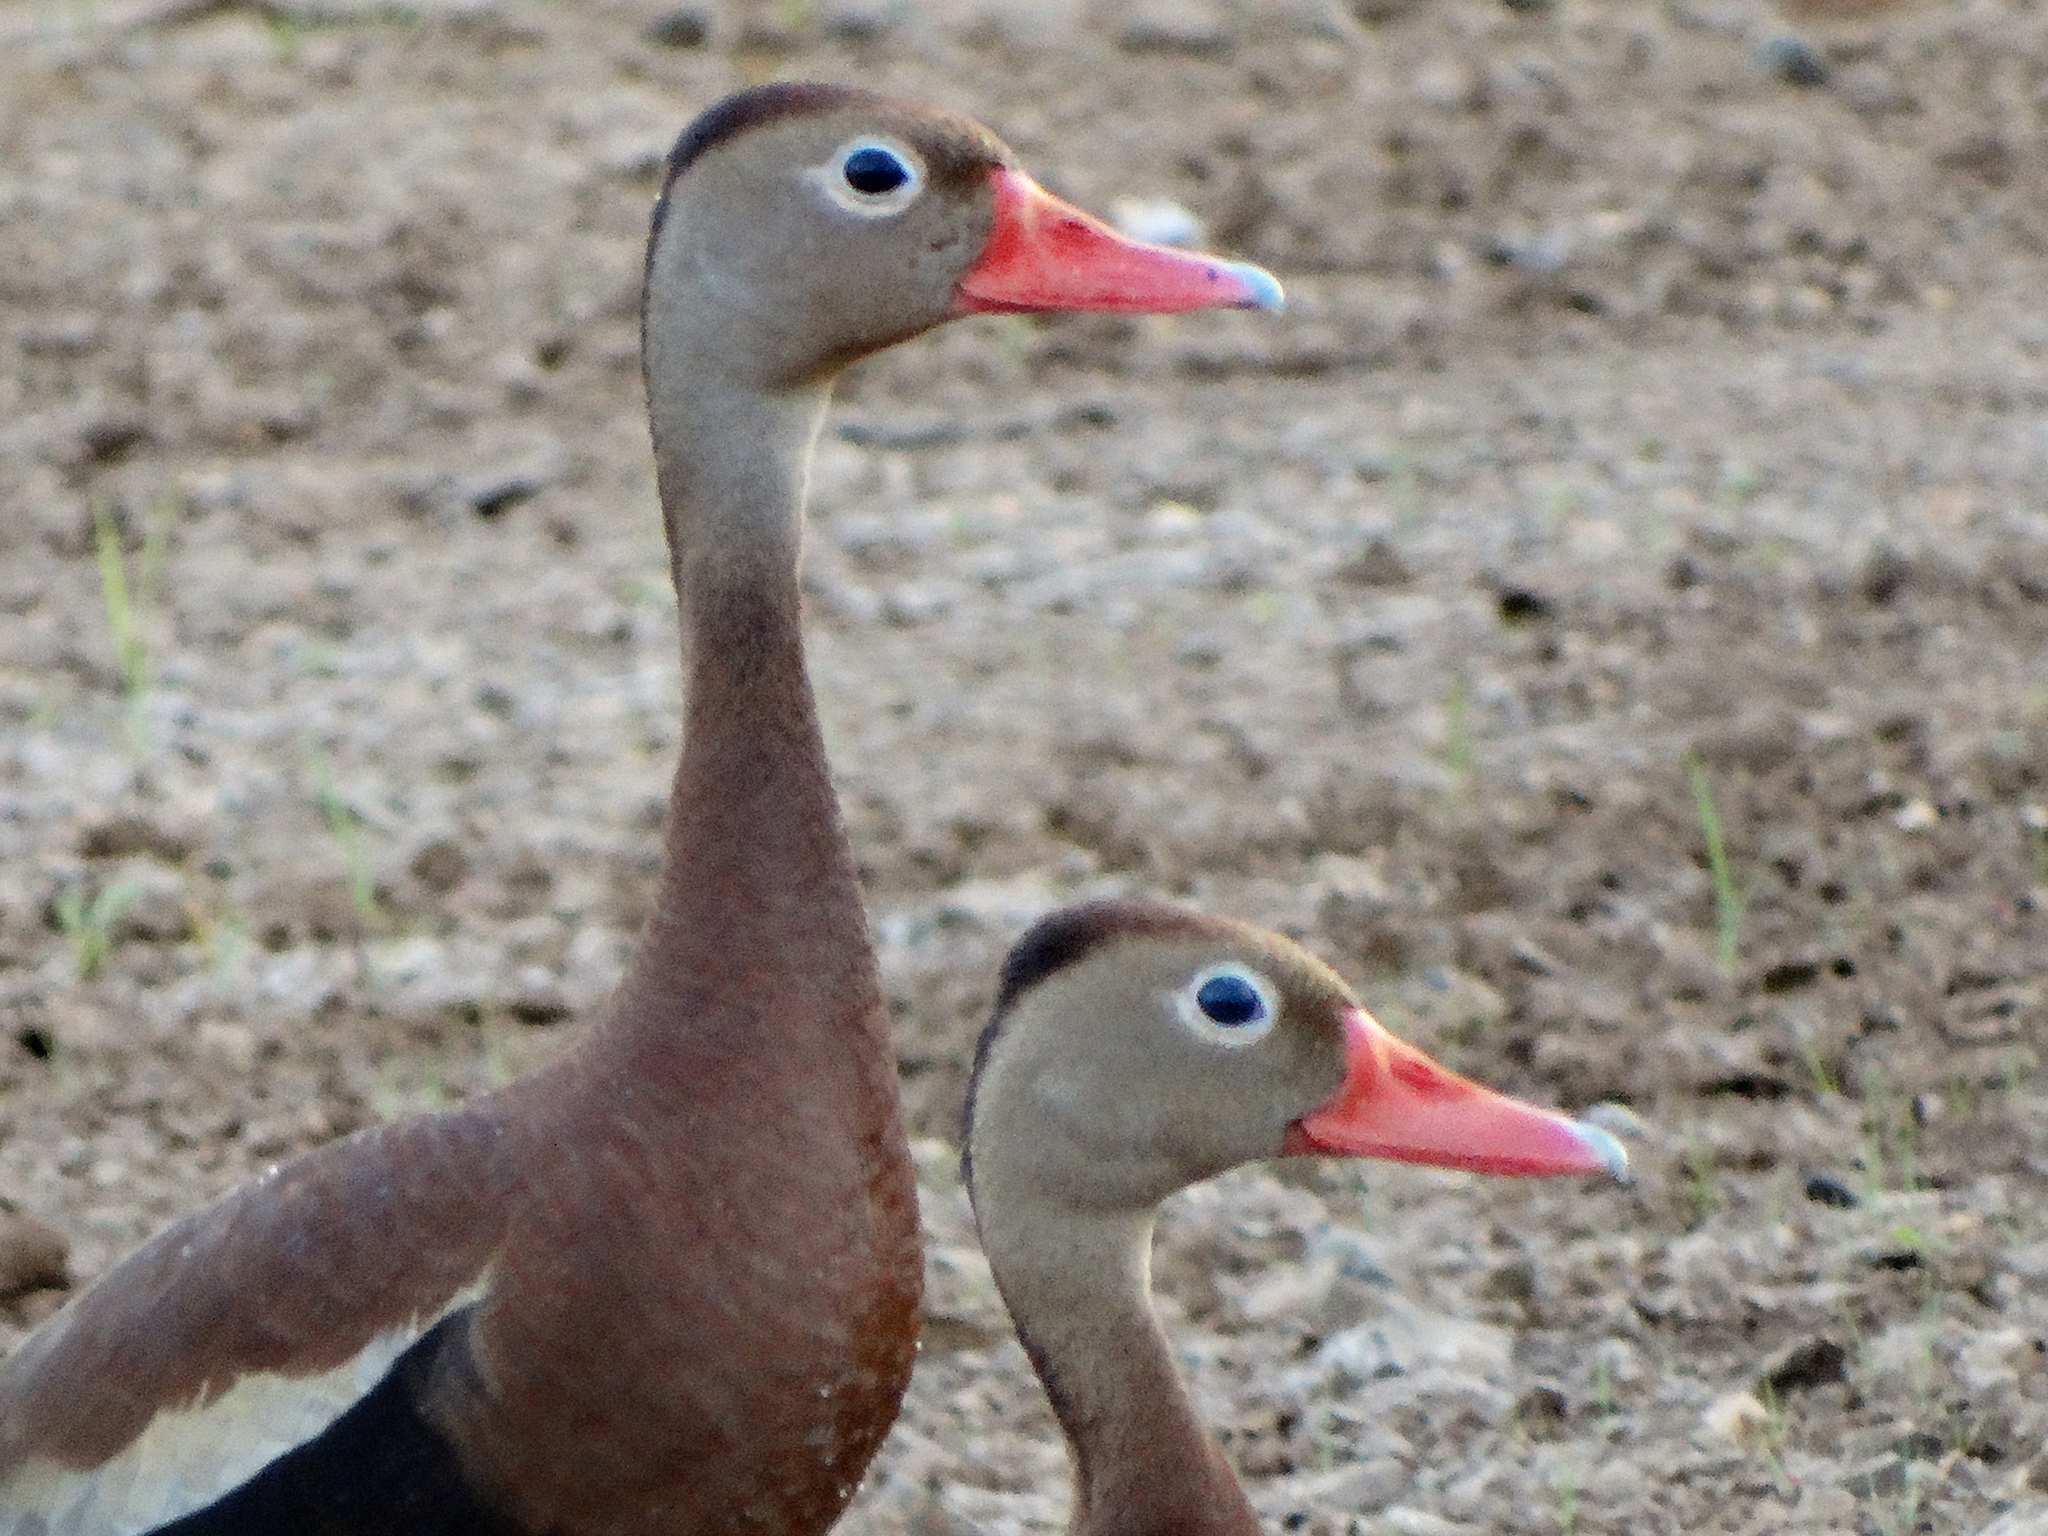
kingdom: Animalia
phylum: Chordata
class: Aves
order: Anseriformes
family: Anatidae
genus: Dendrocygna
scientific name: Dendrocygna autumnalis
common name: Black-bellied whistling duck
